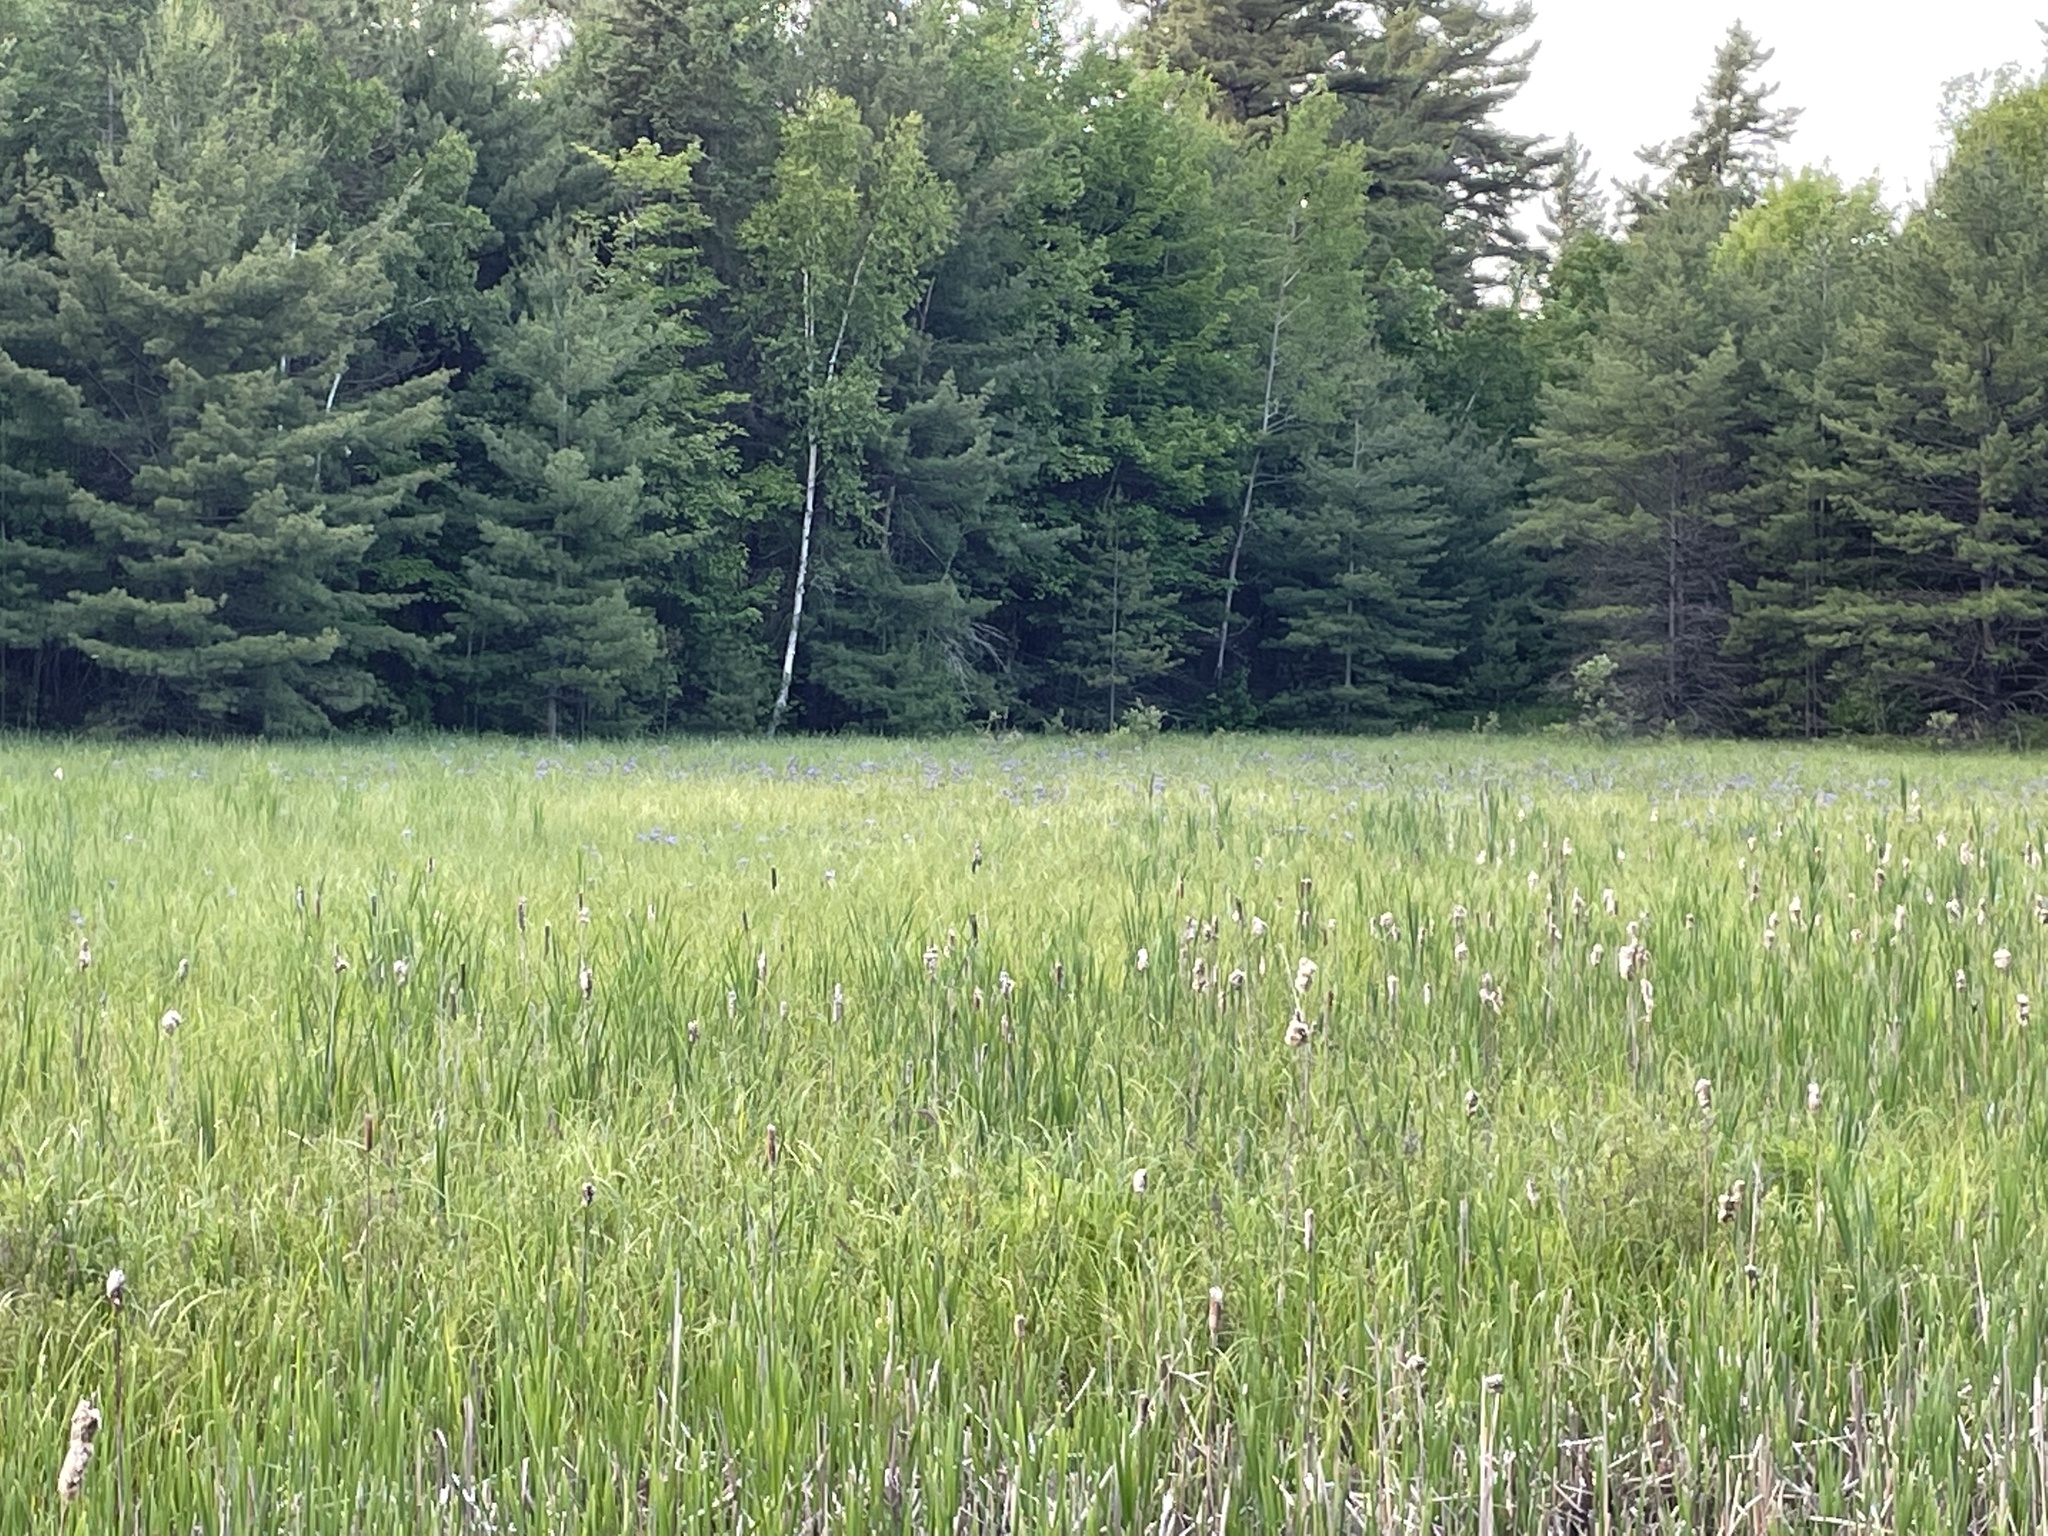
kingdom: Plantae
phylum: Tracheophyta
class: Liliopsida
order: Asparagales
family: Iridaceae
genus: Iris
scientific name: Iris versicolor
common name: Purple iris
